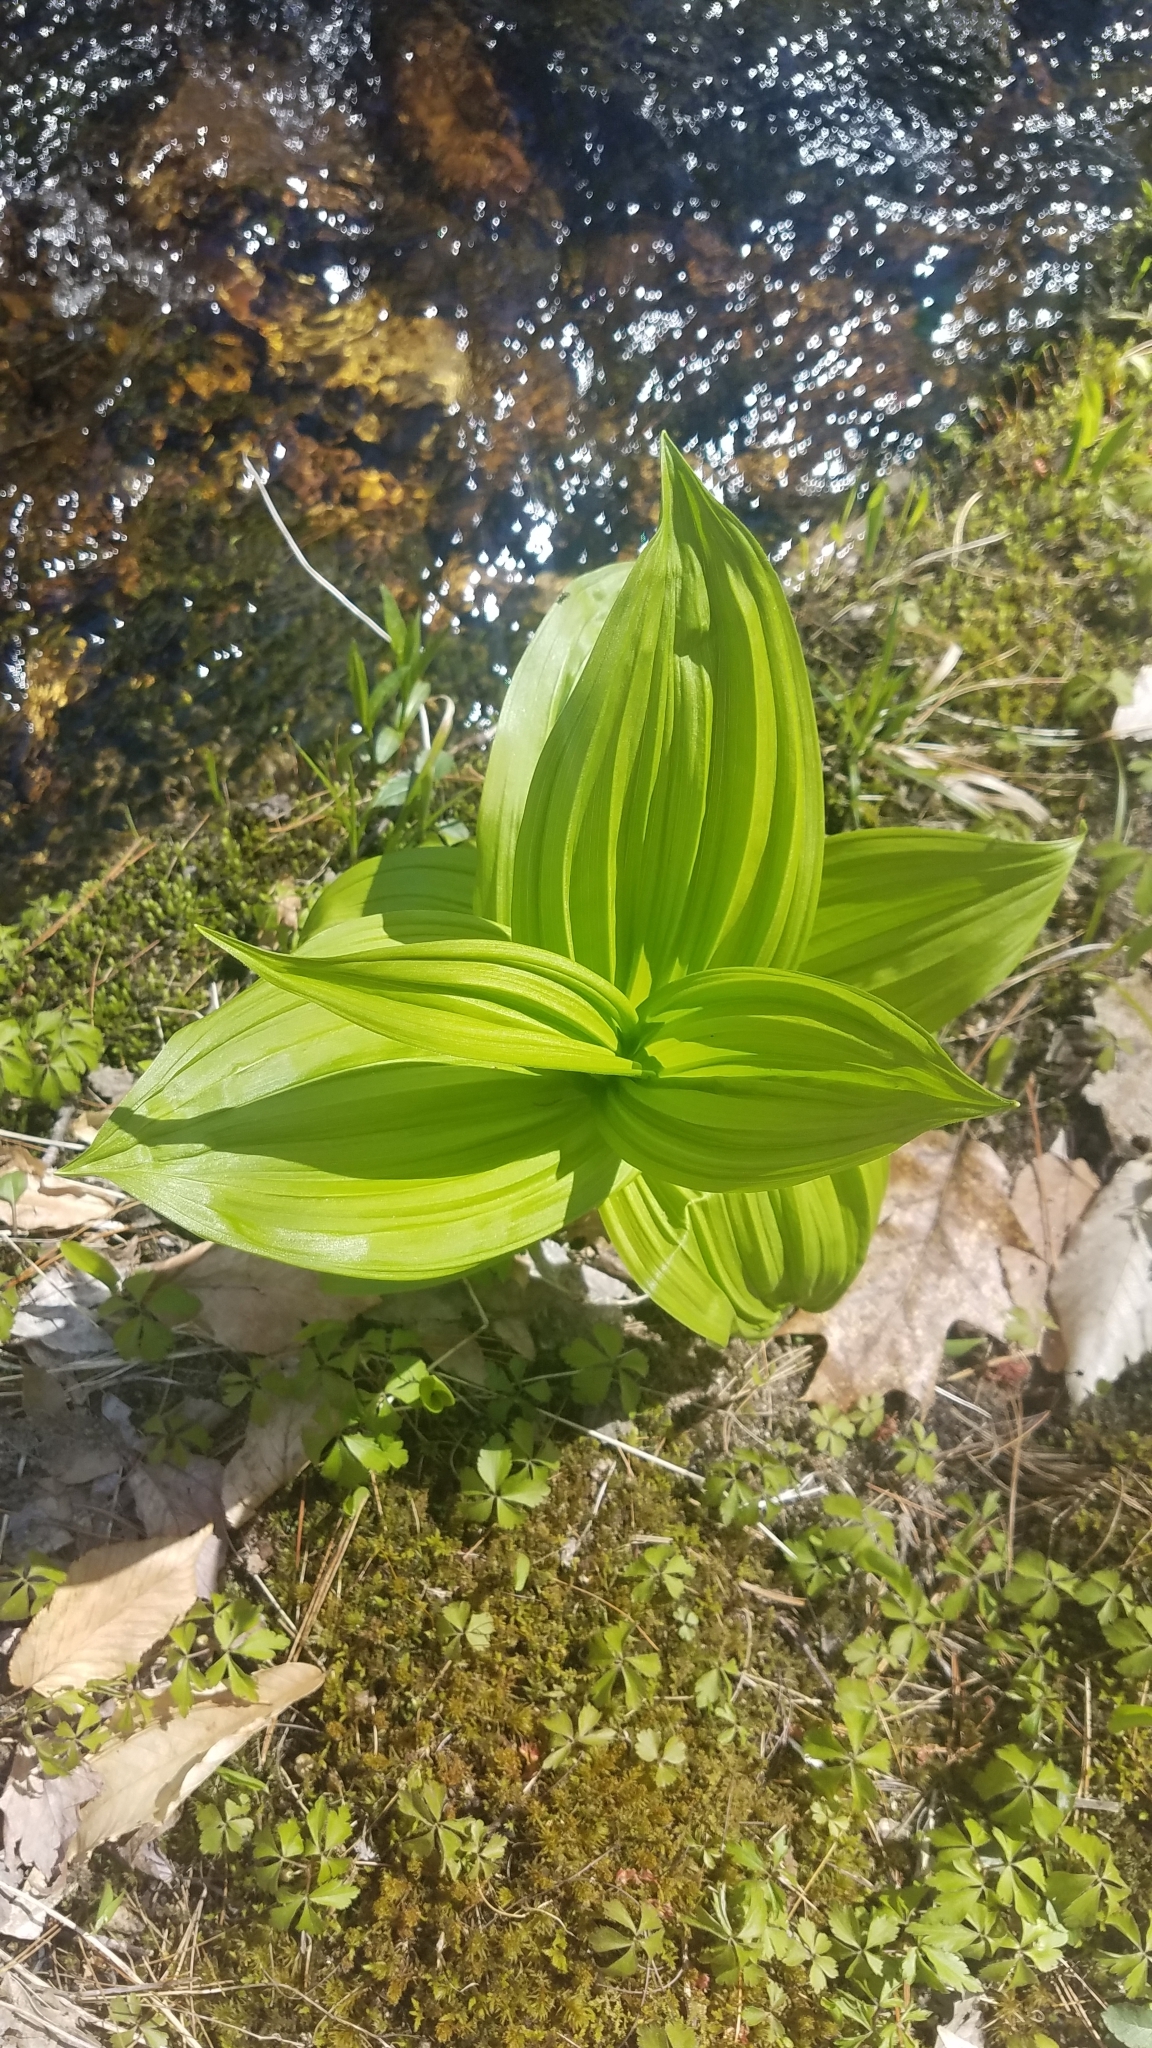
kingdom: Plantae
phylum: Tracheophyta
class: Liliopsida
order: Liliales
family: Melanthiaceae
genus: Veratrum
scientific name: Veratrum viride
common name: American false hellebore
